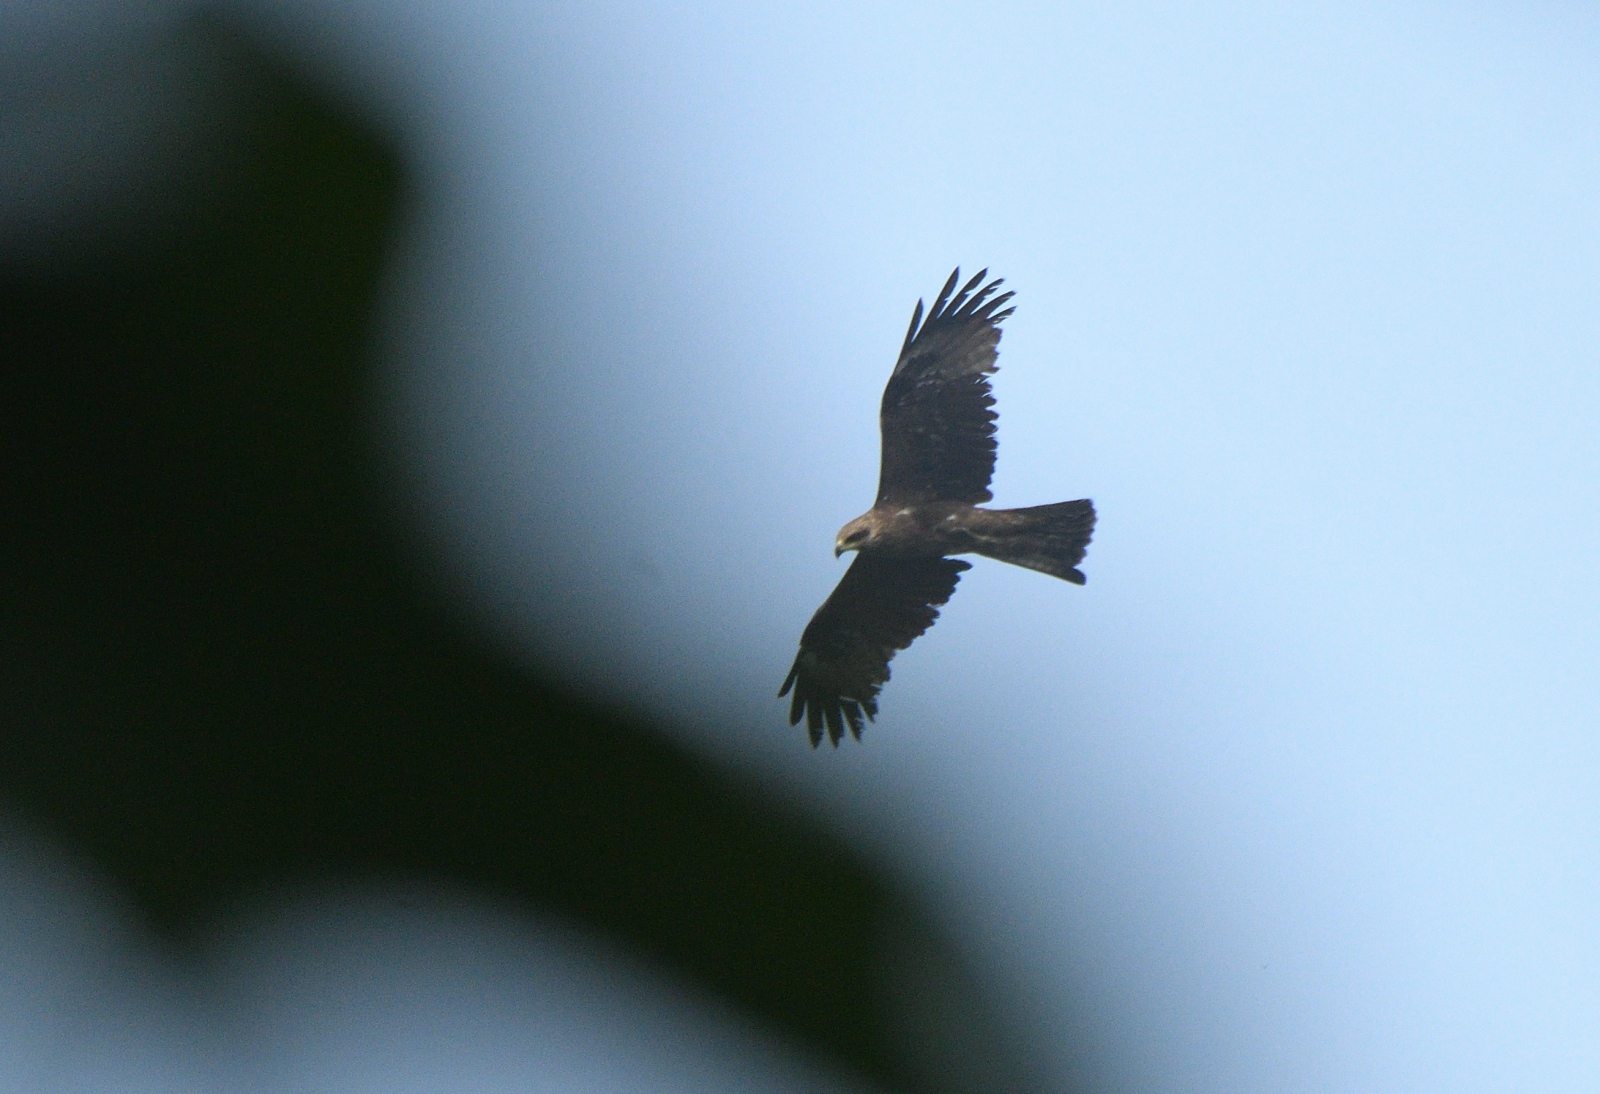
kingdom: Animalia
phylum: Chordata
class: Aves
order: Accipitriformes
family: Accipitridae
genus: Milvus
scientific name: Milvus migrans
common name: Black kite
